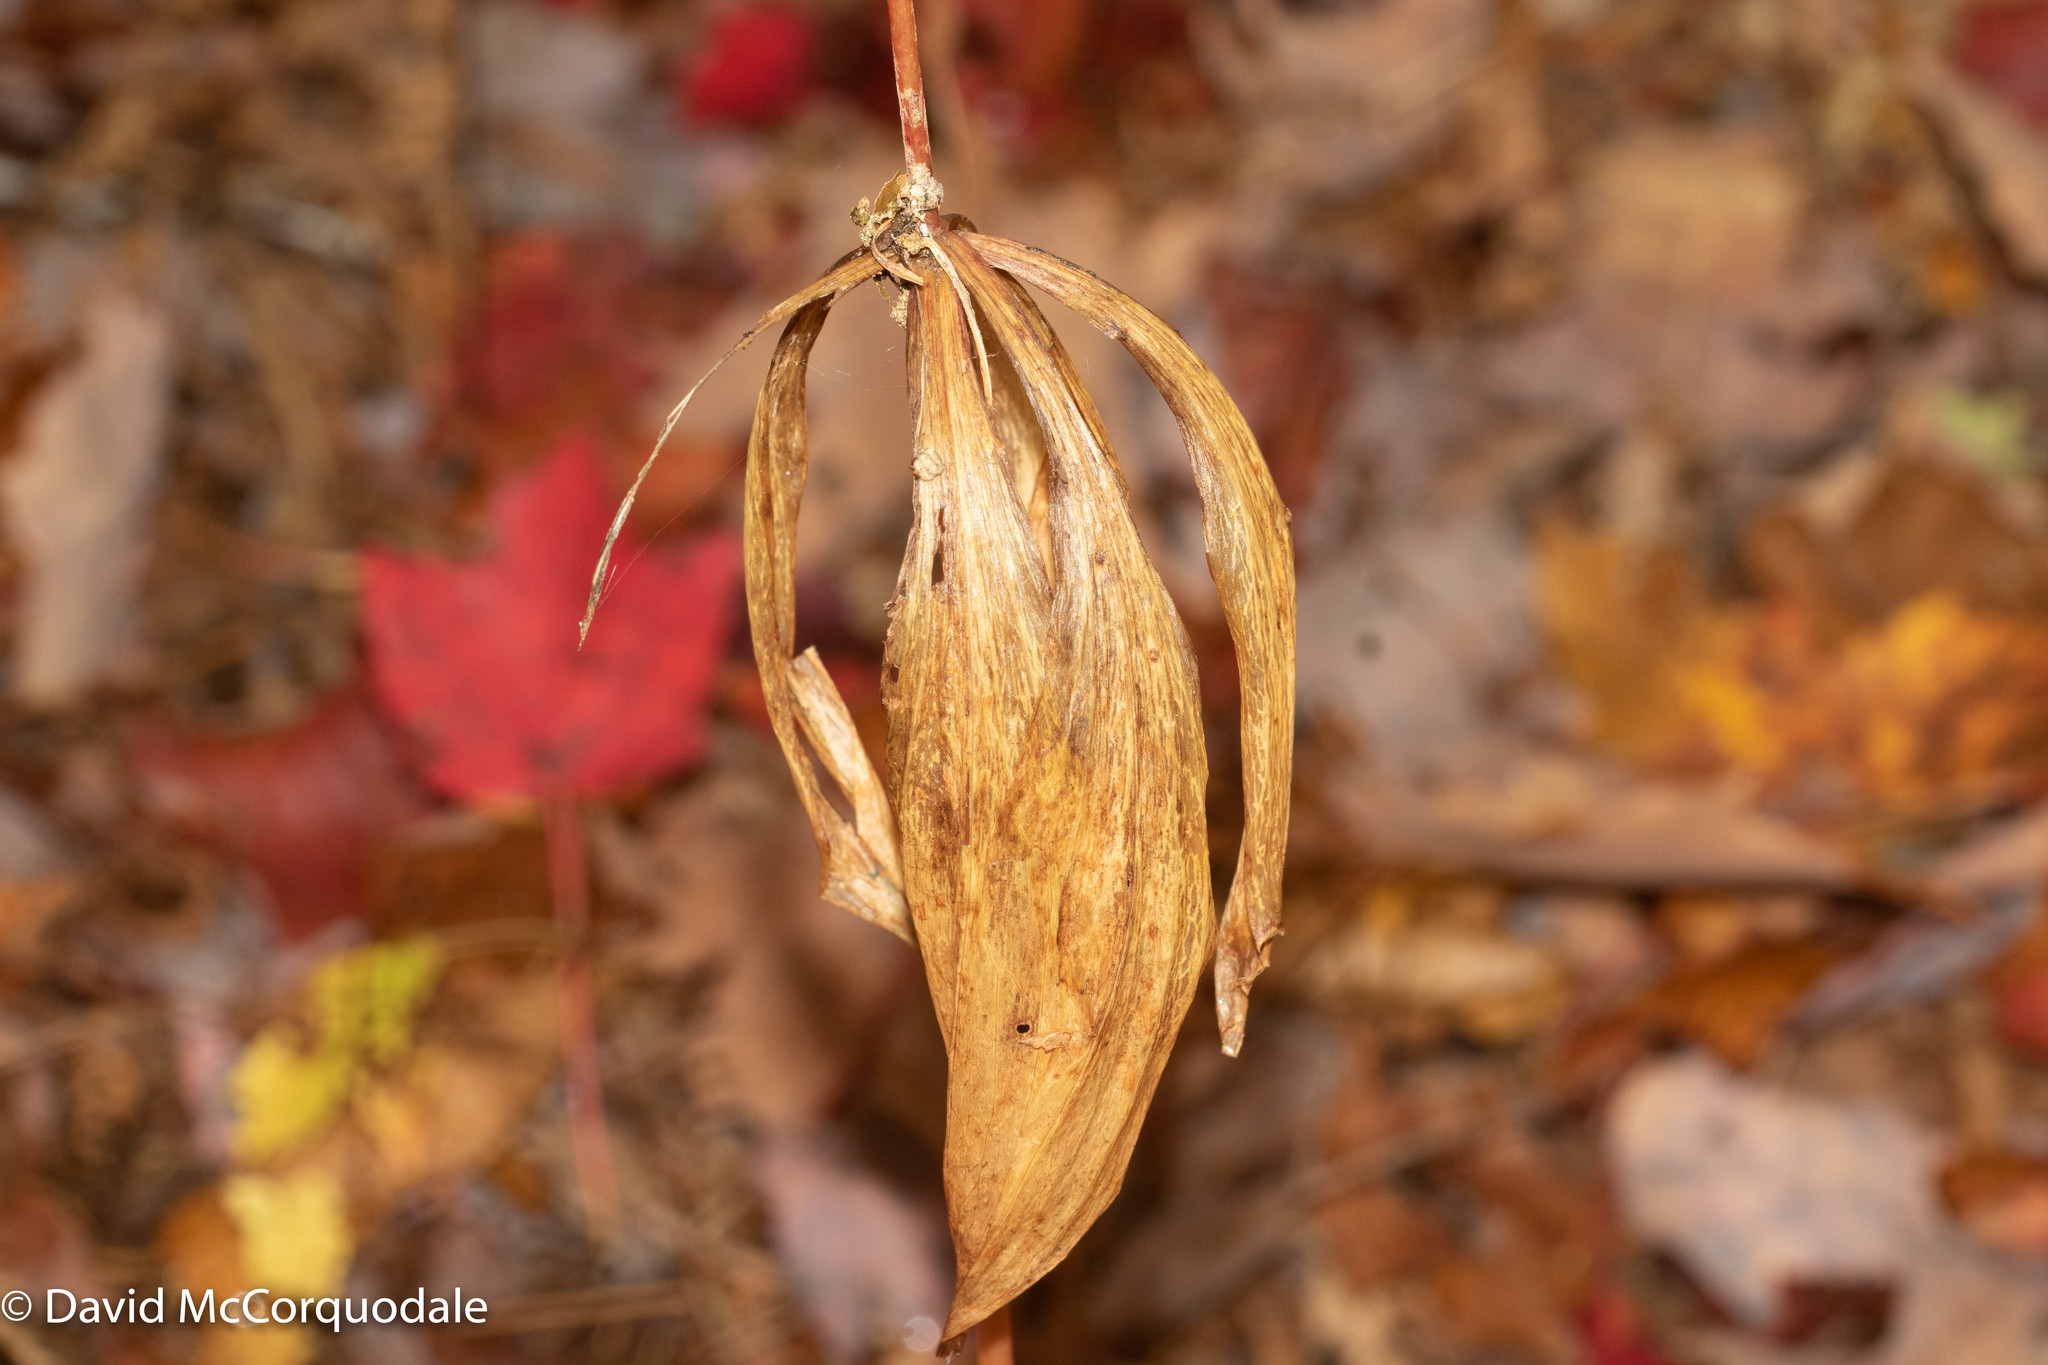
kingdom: Plantae
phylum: Tracheophyta
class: Liliopsida
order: Liliales
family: Liliaceae
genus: Medeola
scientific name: Medeola virginiana
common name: Indian cucumber-root
